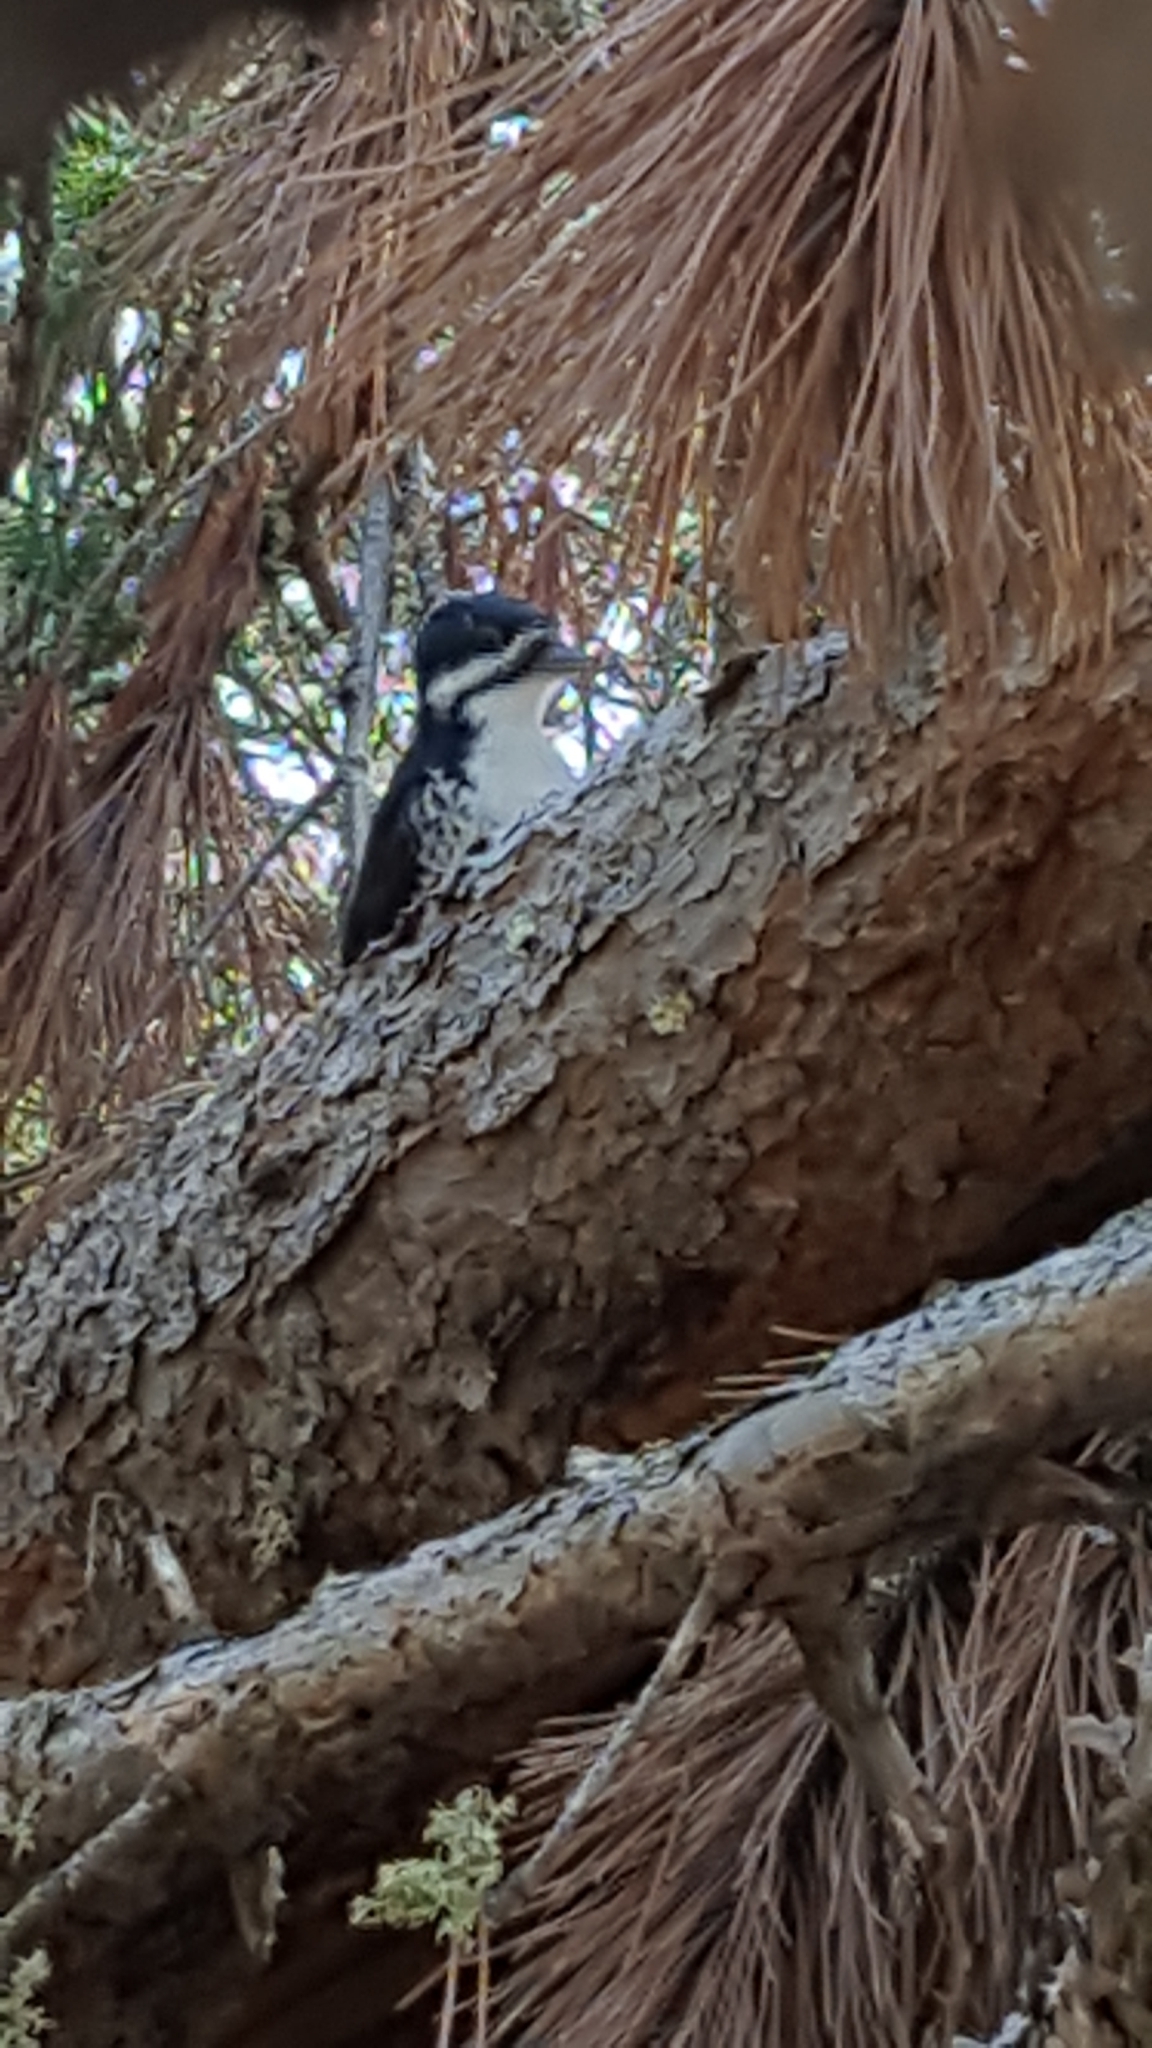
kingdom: Animalia
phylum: Chordata
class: Aves
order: Piciformes
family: Picidae
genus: Picoides
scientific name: Picoides arcticus
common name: Black-backed woodpecker
